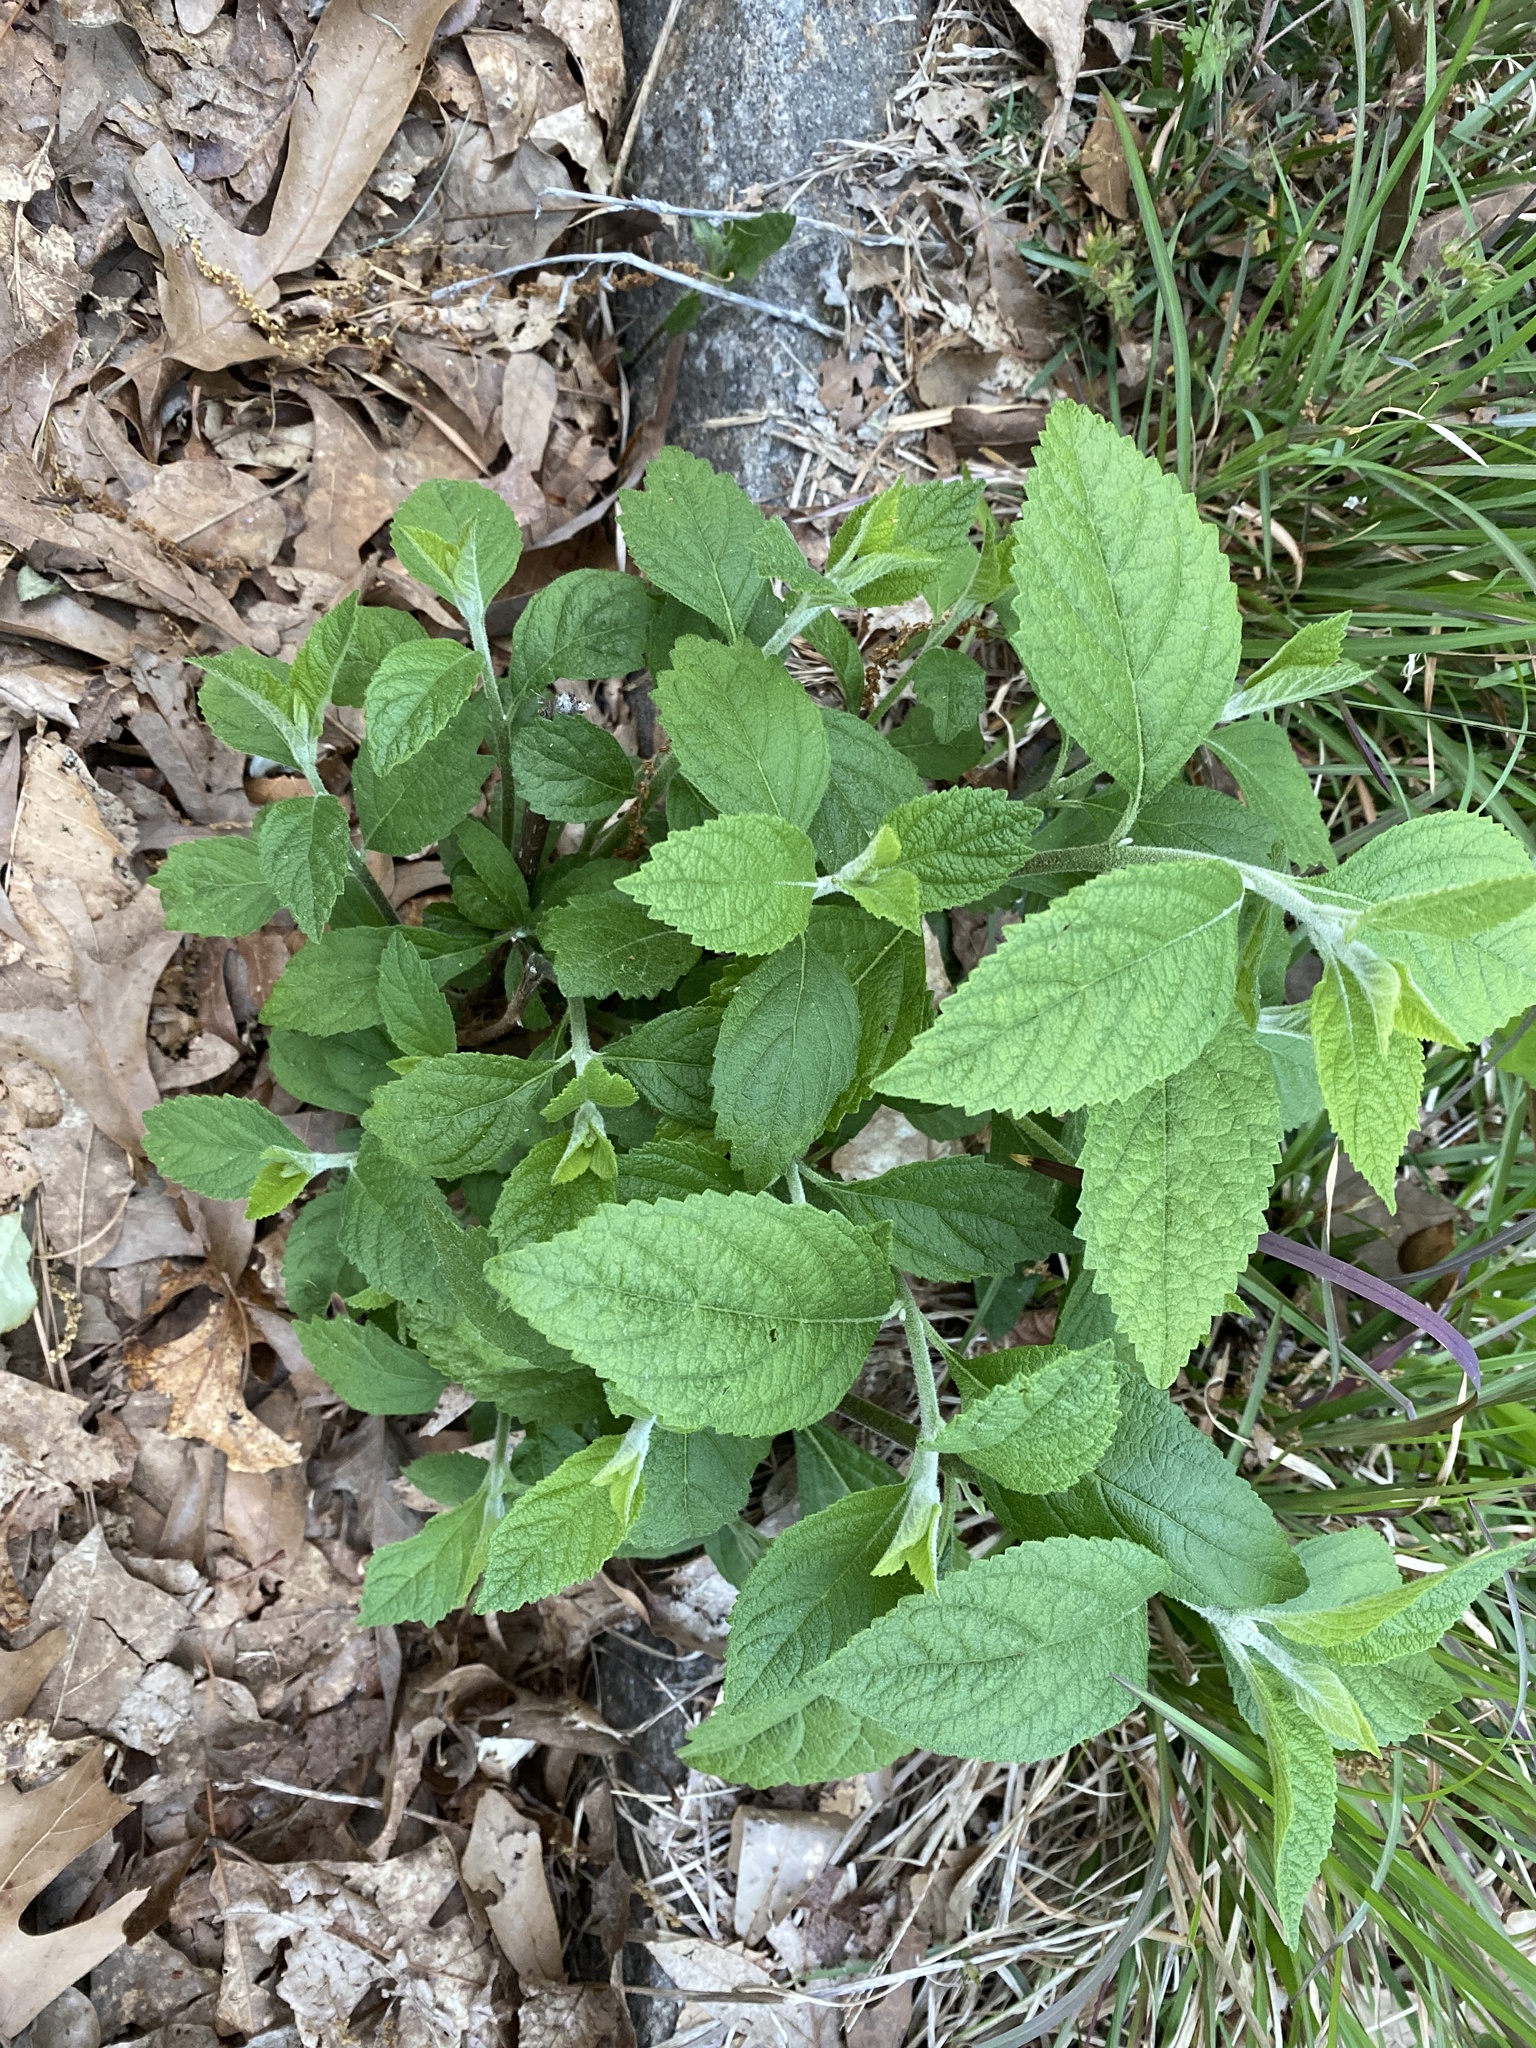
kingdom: Plantae
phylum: Tracheophyta
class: Magnoliopsida
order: Lamiales
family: Lamiaceae
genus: Callicarpa
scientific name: Callicarpa americana
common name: American beautyberry
